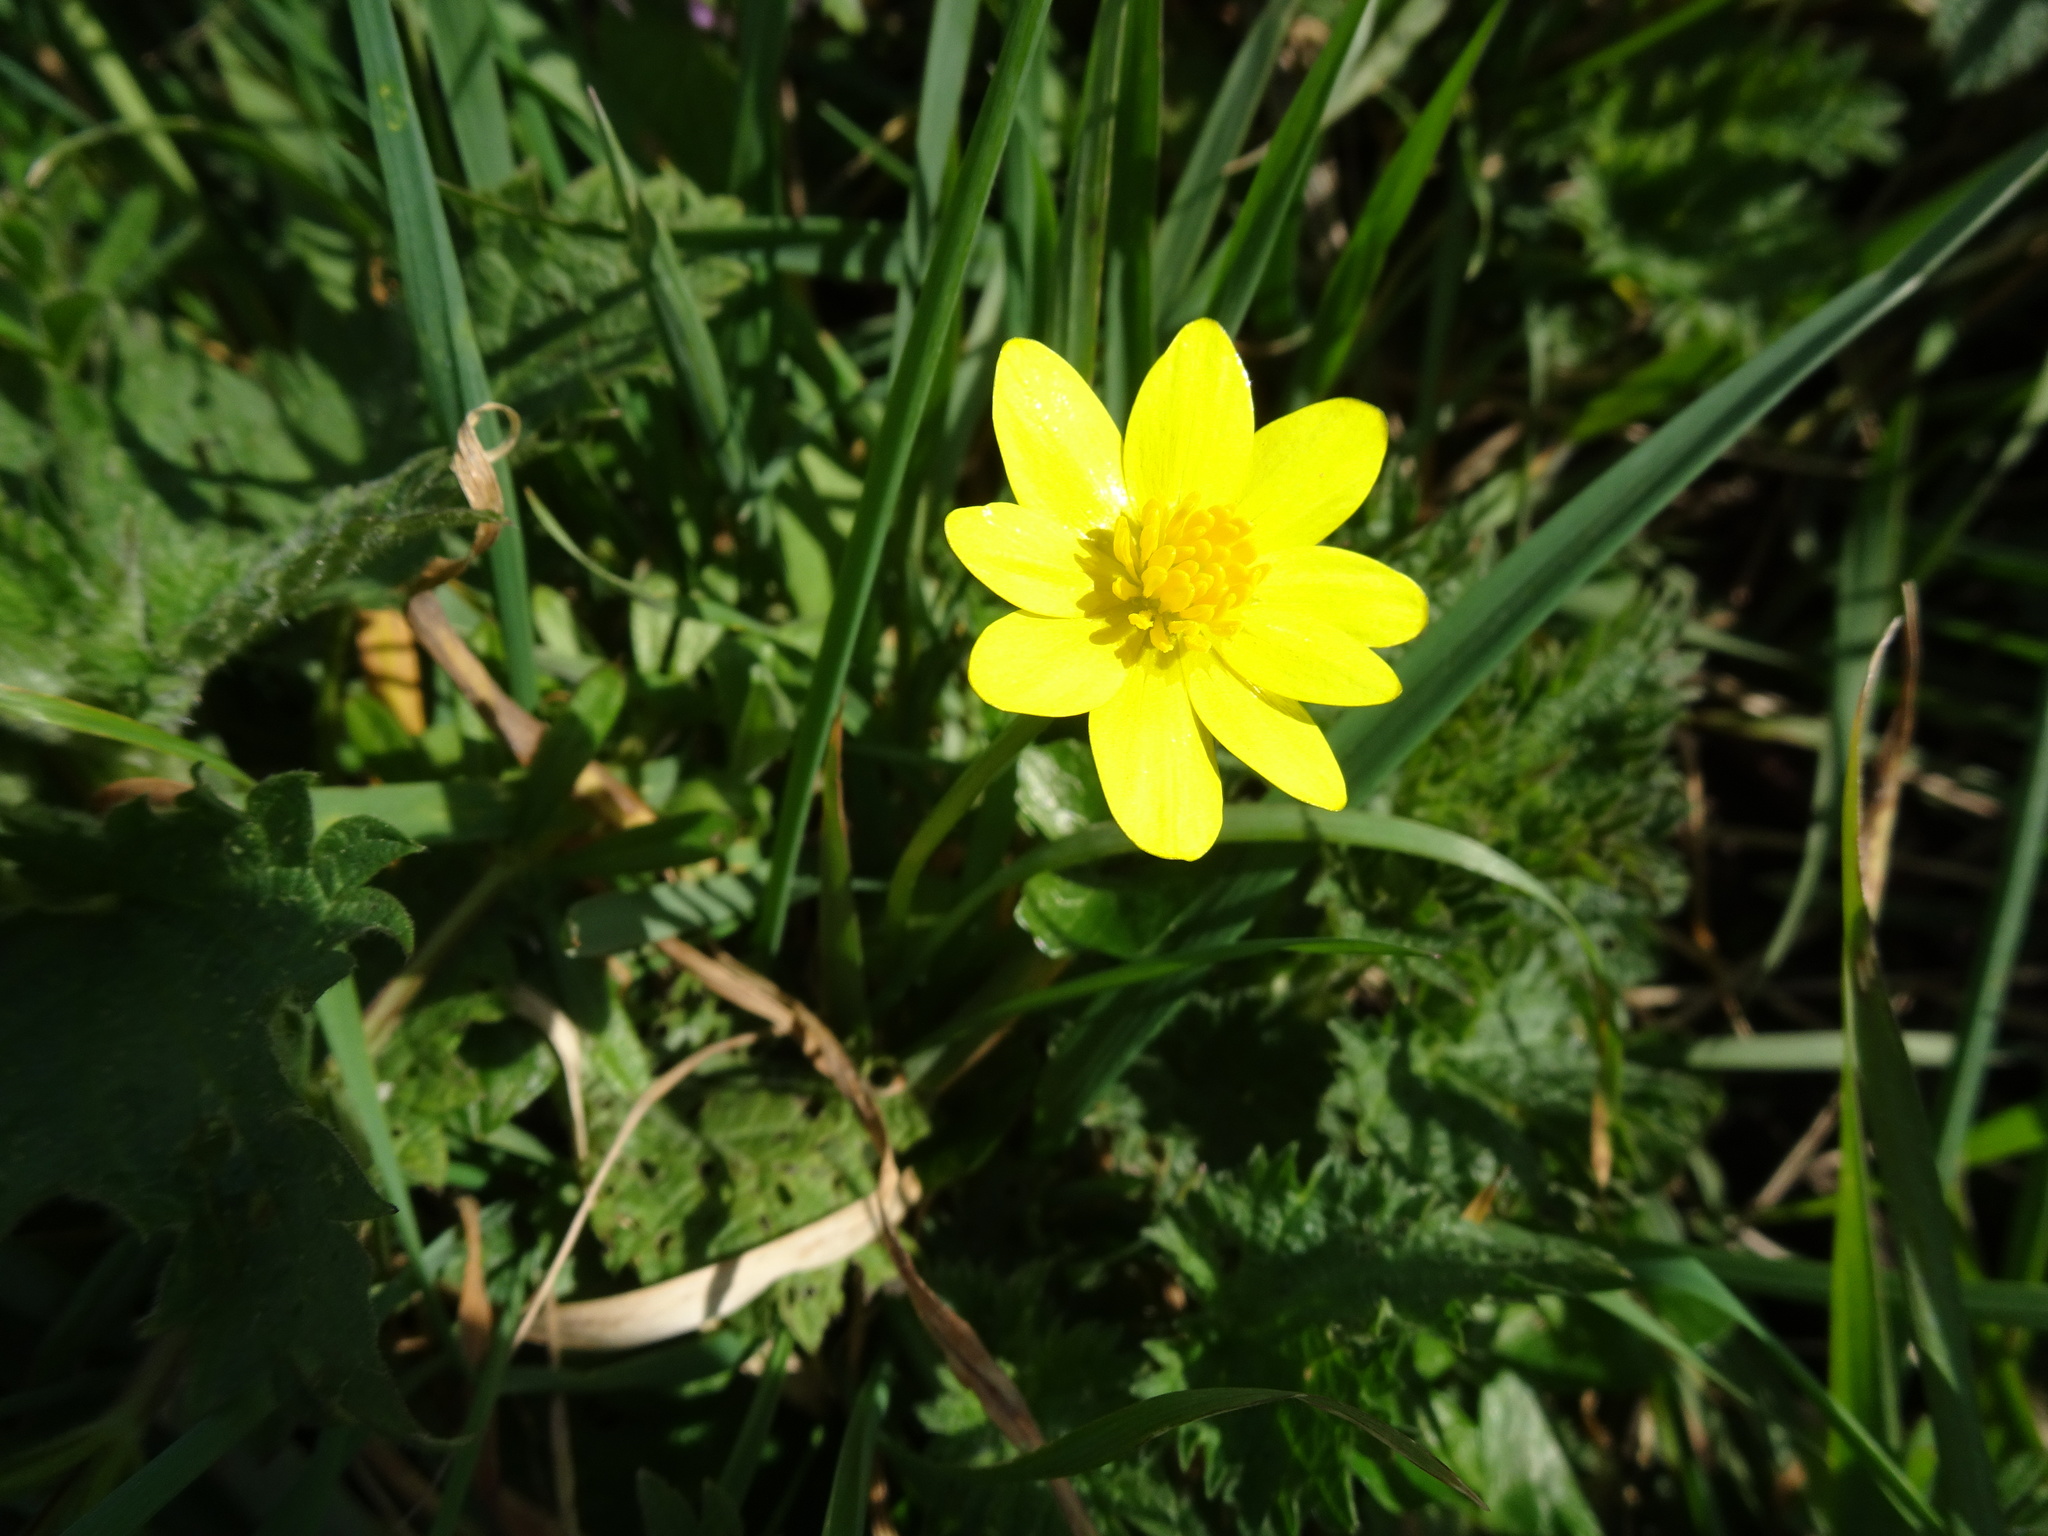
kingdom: Plantae
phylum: Tracheophyta
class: Magnoliopsida
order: Ranunculales
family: Ranunculaceae
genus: Ficaria
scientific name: Ficaria verna
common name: Lesser celandine
